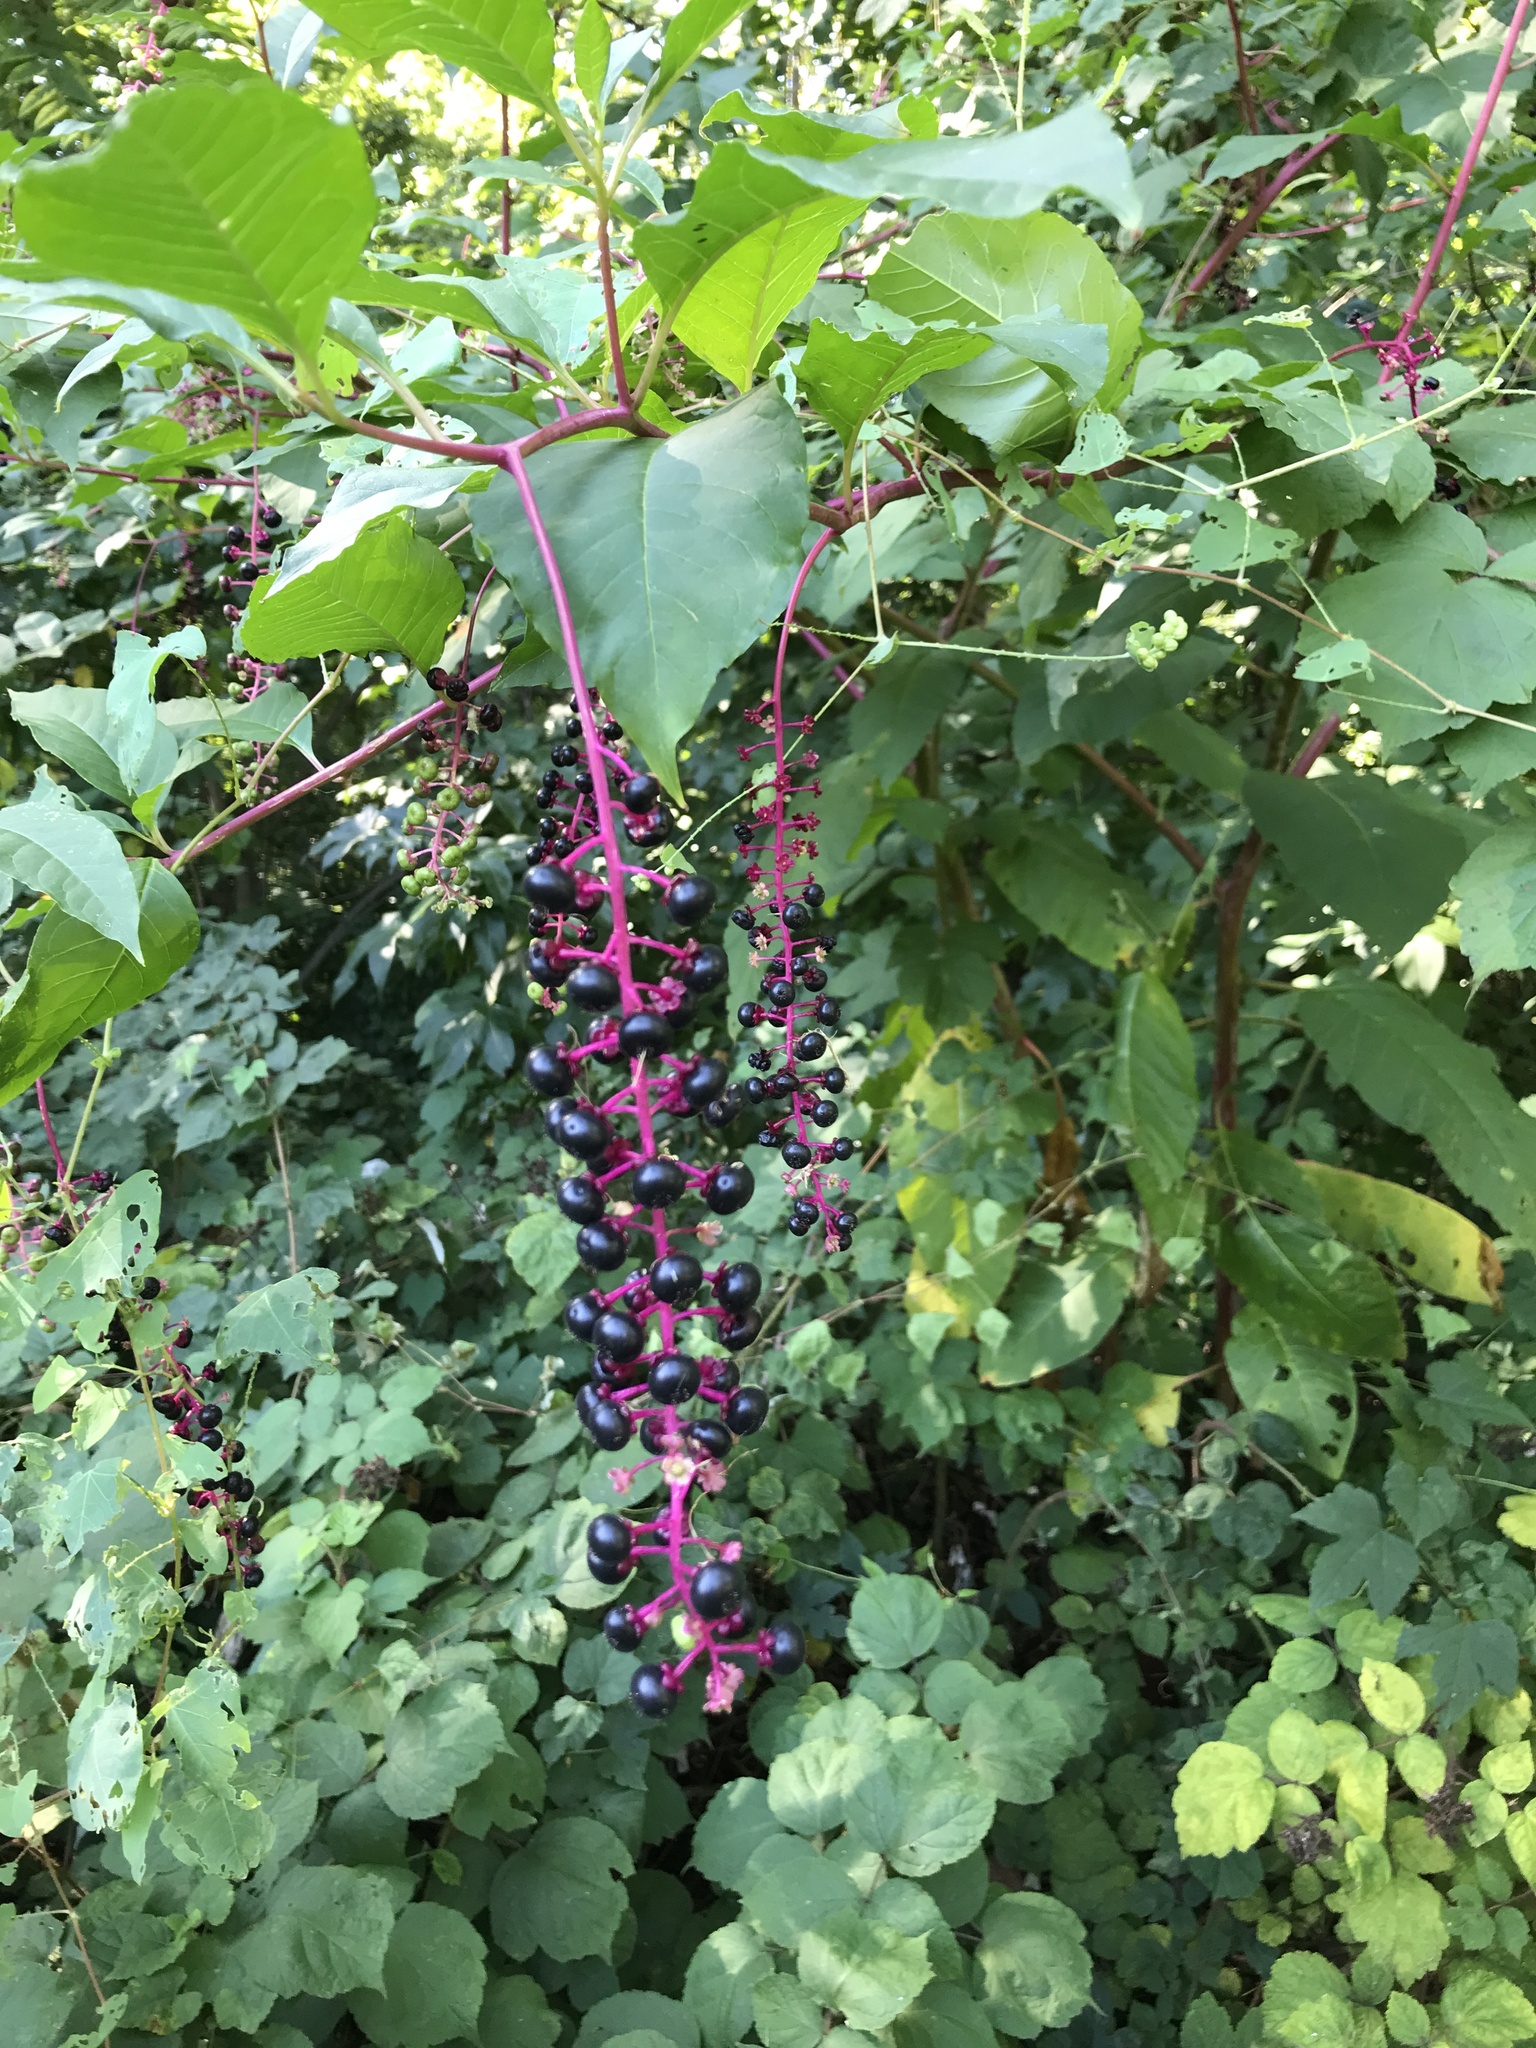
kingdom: Plantae
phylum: Tracheophyta
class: Magnoliopsida
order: Caryophyllales
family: Phytolaccaceae
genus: Phytolacca
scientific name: Phytolacca americana
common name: American pokeweed
